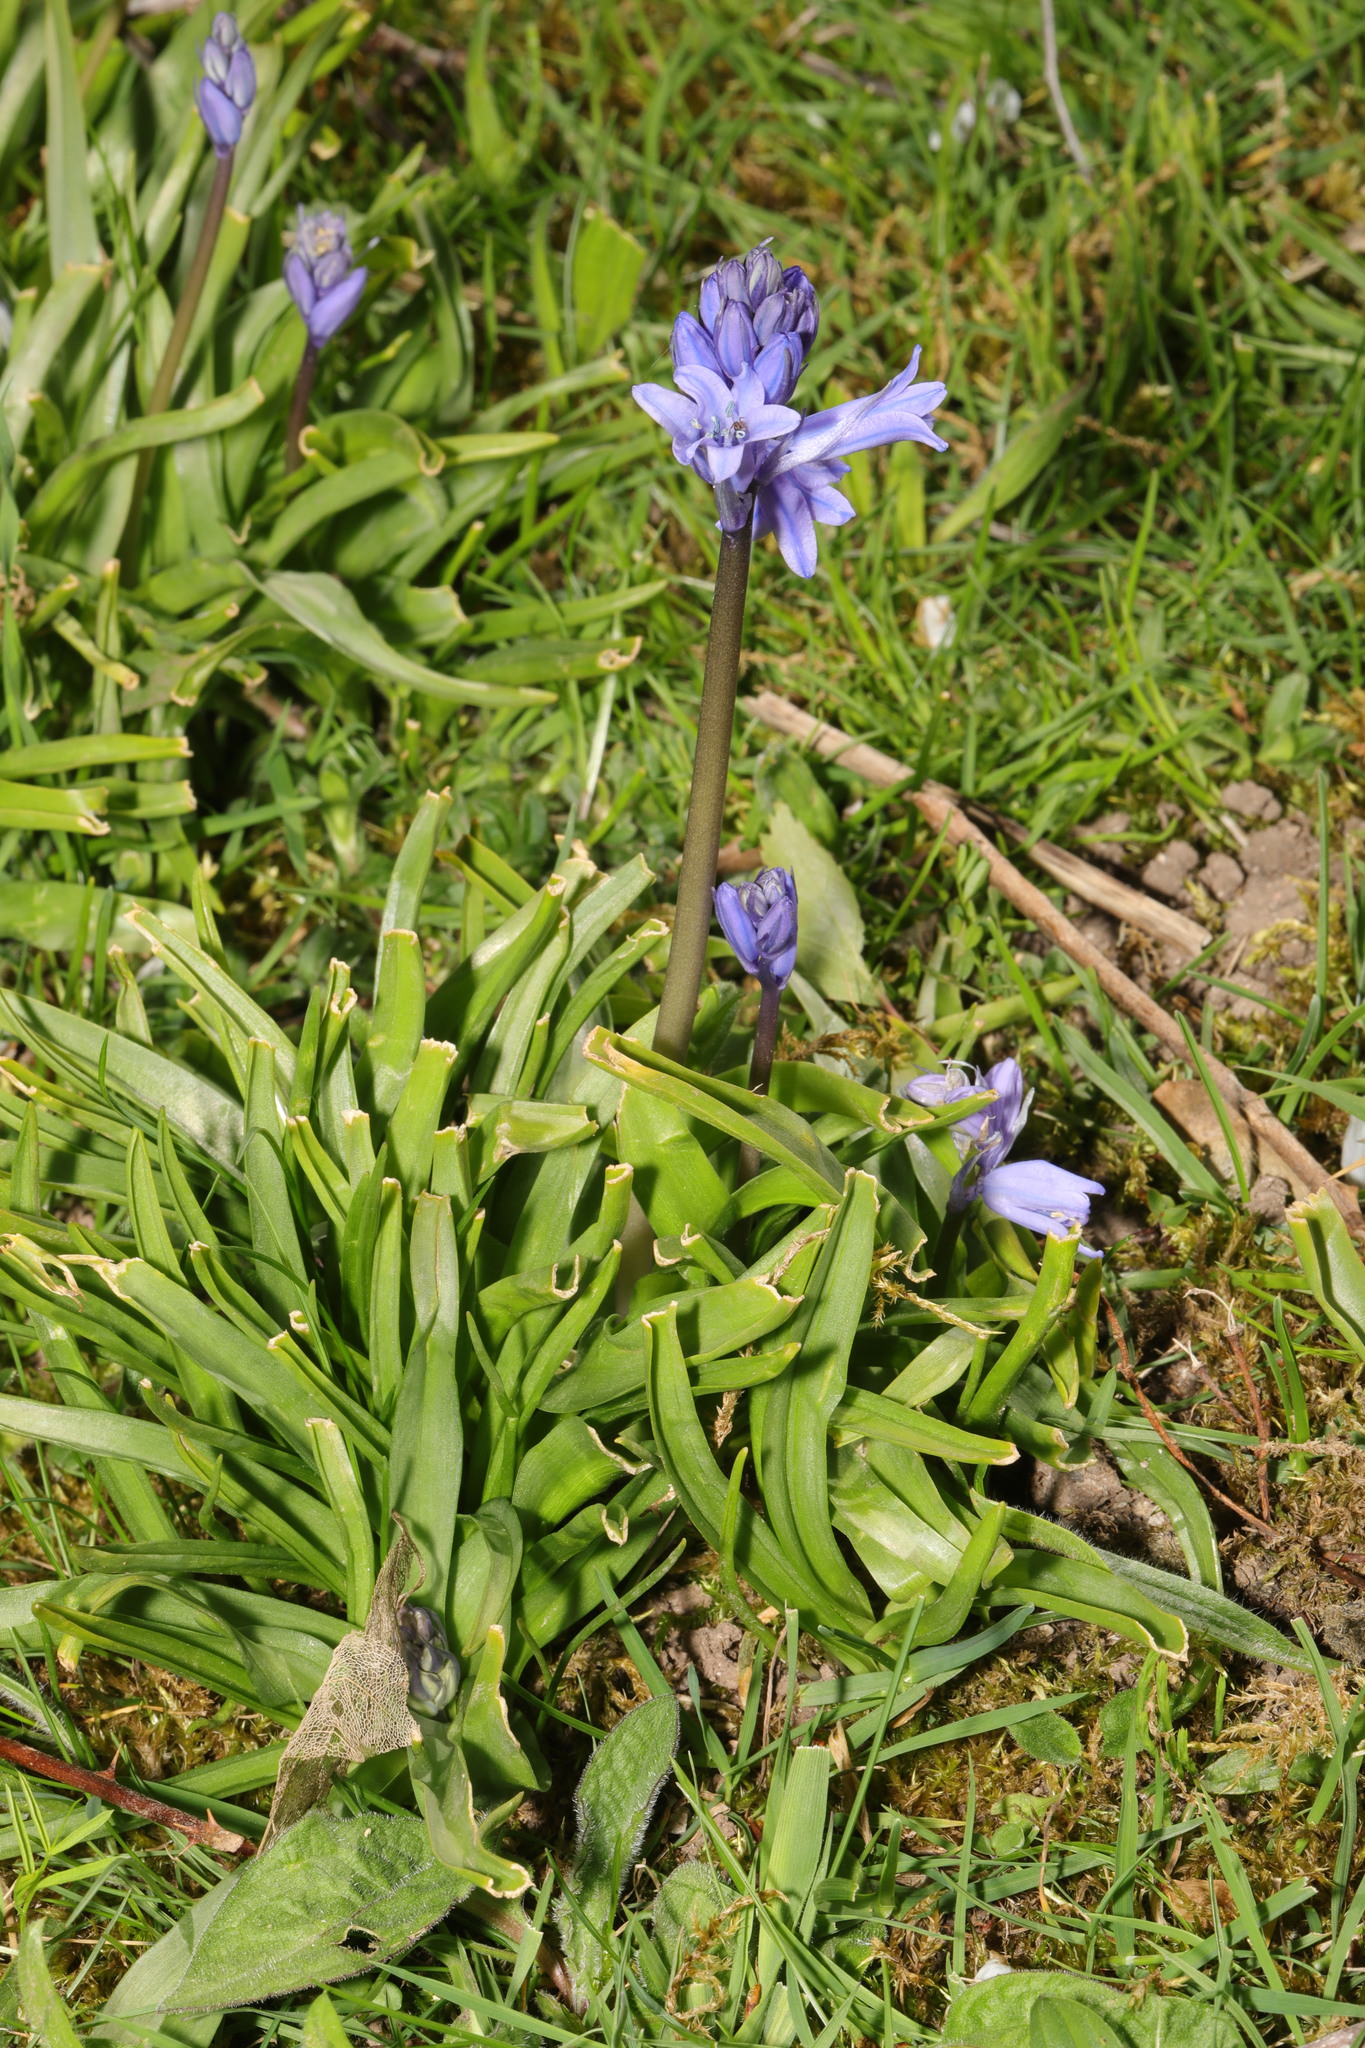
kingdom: Plantae
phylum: Tracheophyta
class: Liliopsida
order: Asparagales
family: Asparagaceae
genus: Hyacinthoides
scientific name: Hyacinthoides massartiana
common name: Hyacinthoides
